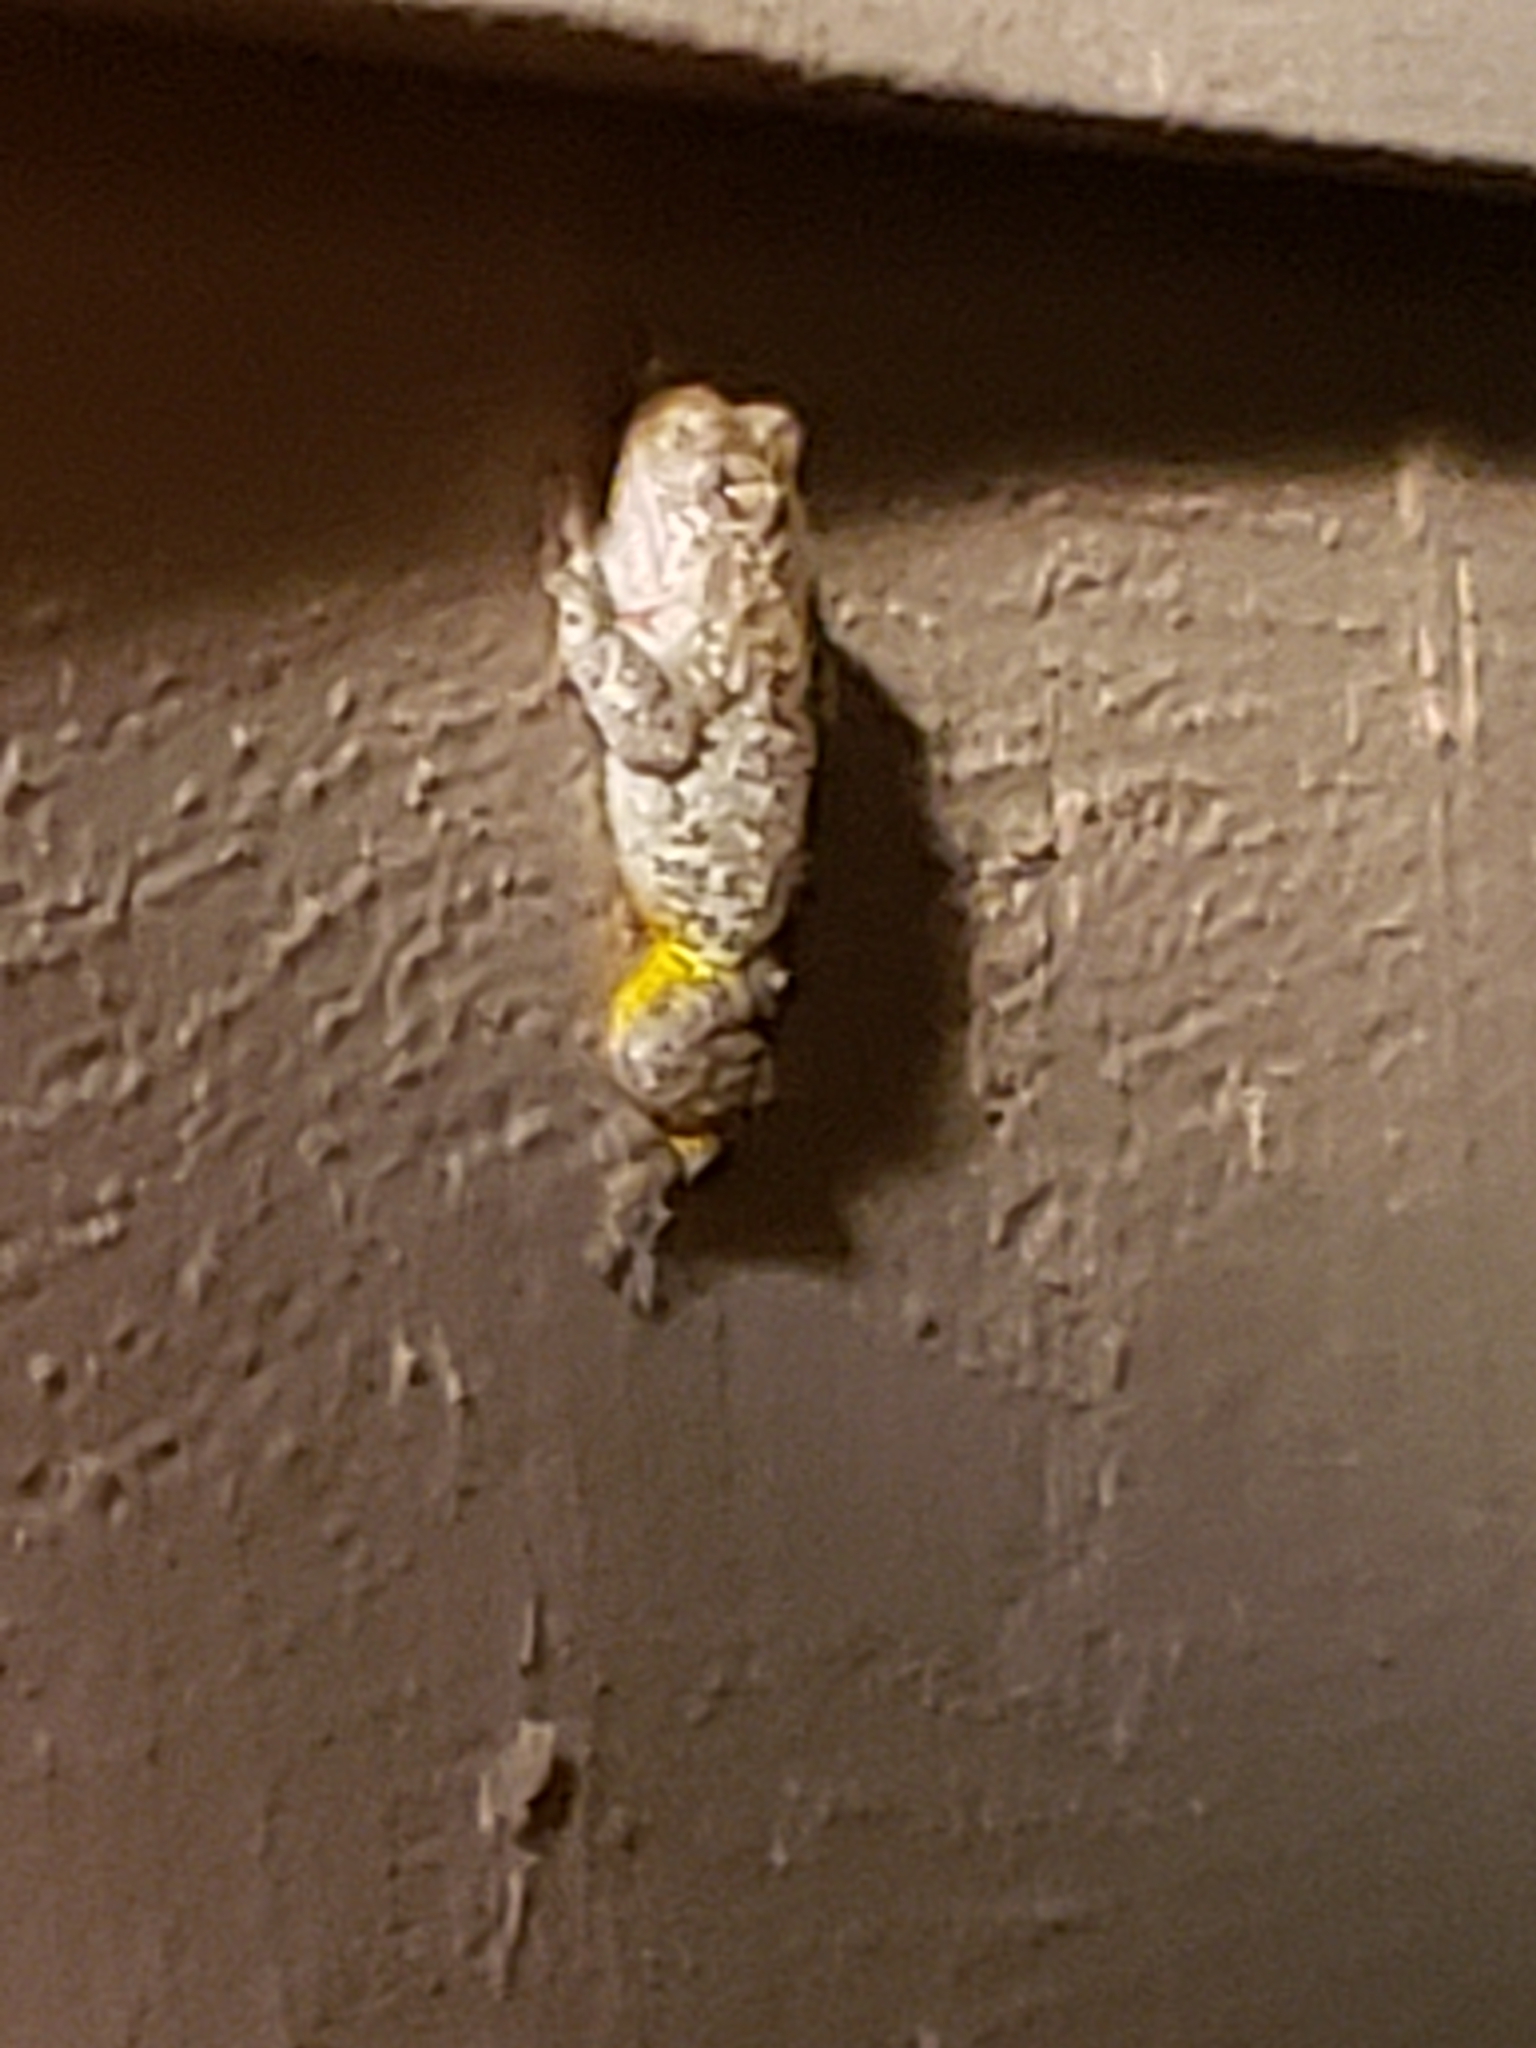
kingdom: Animalia
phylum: Chordata
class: Amphibia
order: Anura
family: Hylidae
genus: Hyla
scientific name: Hyla
